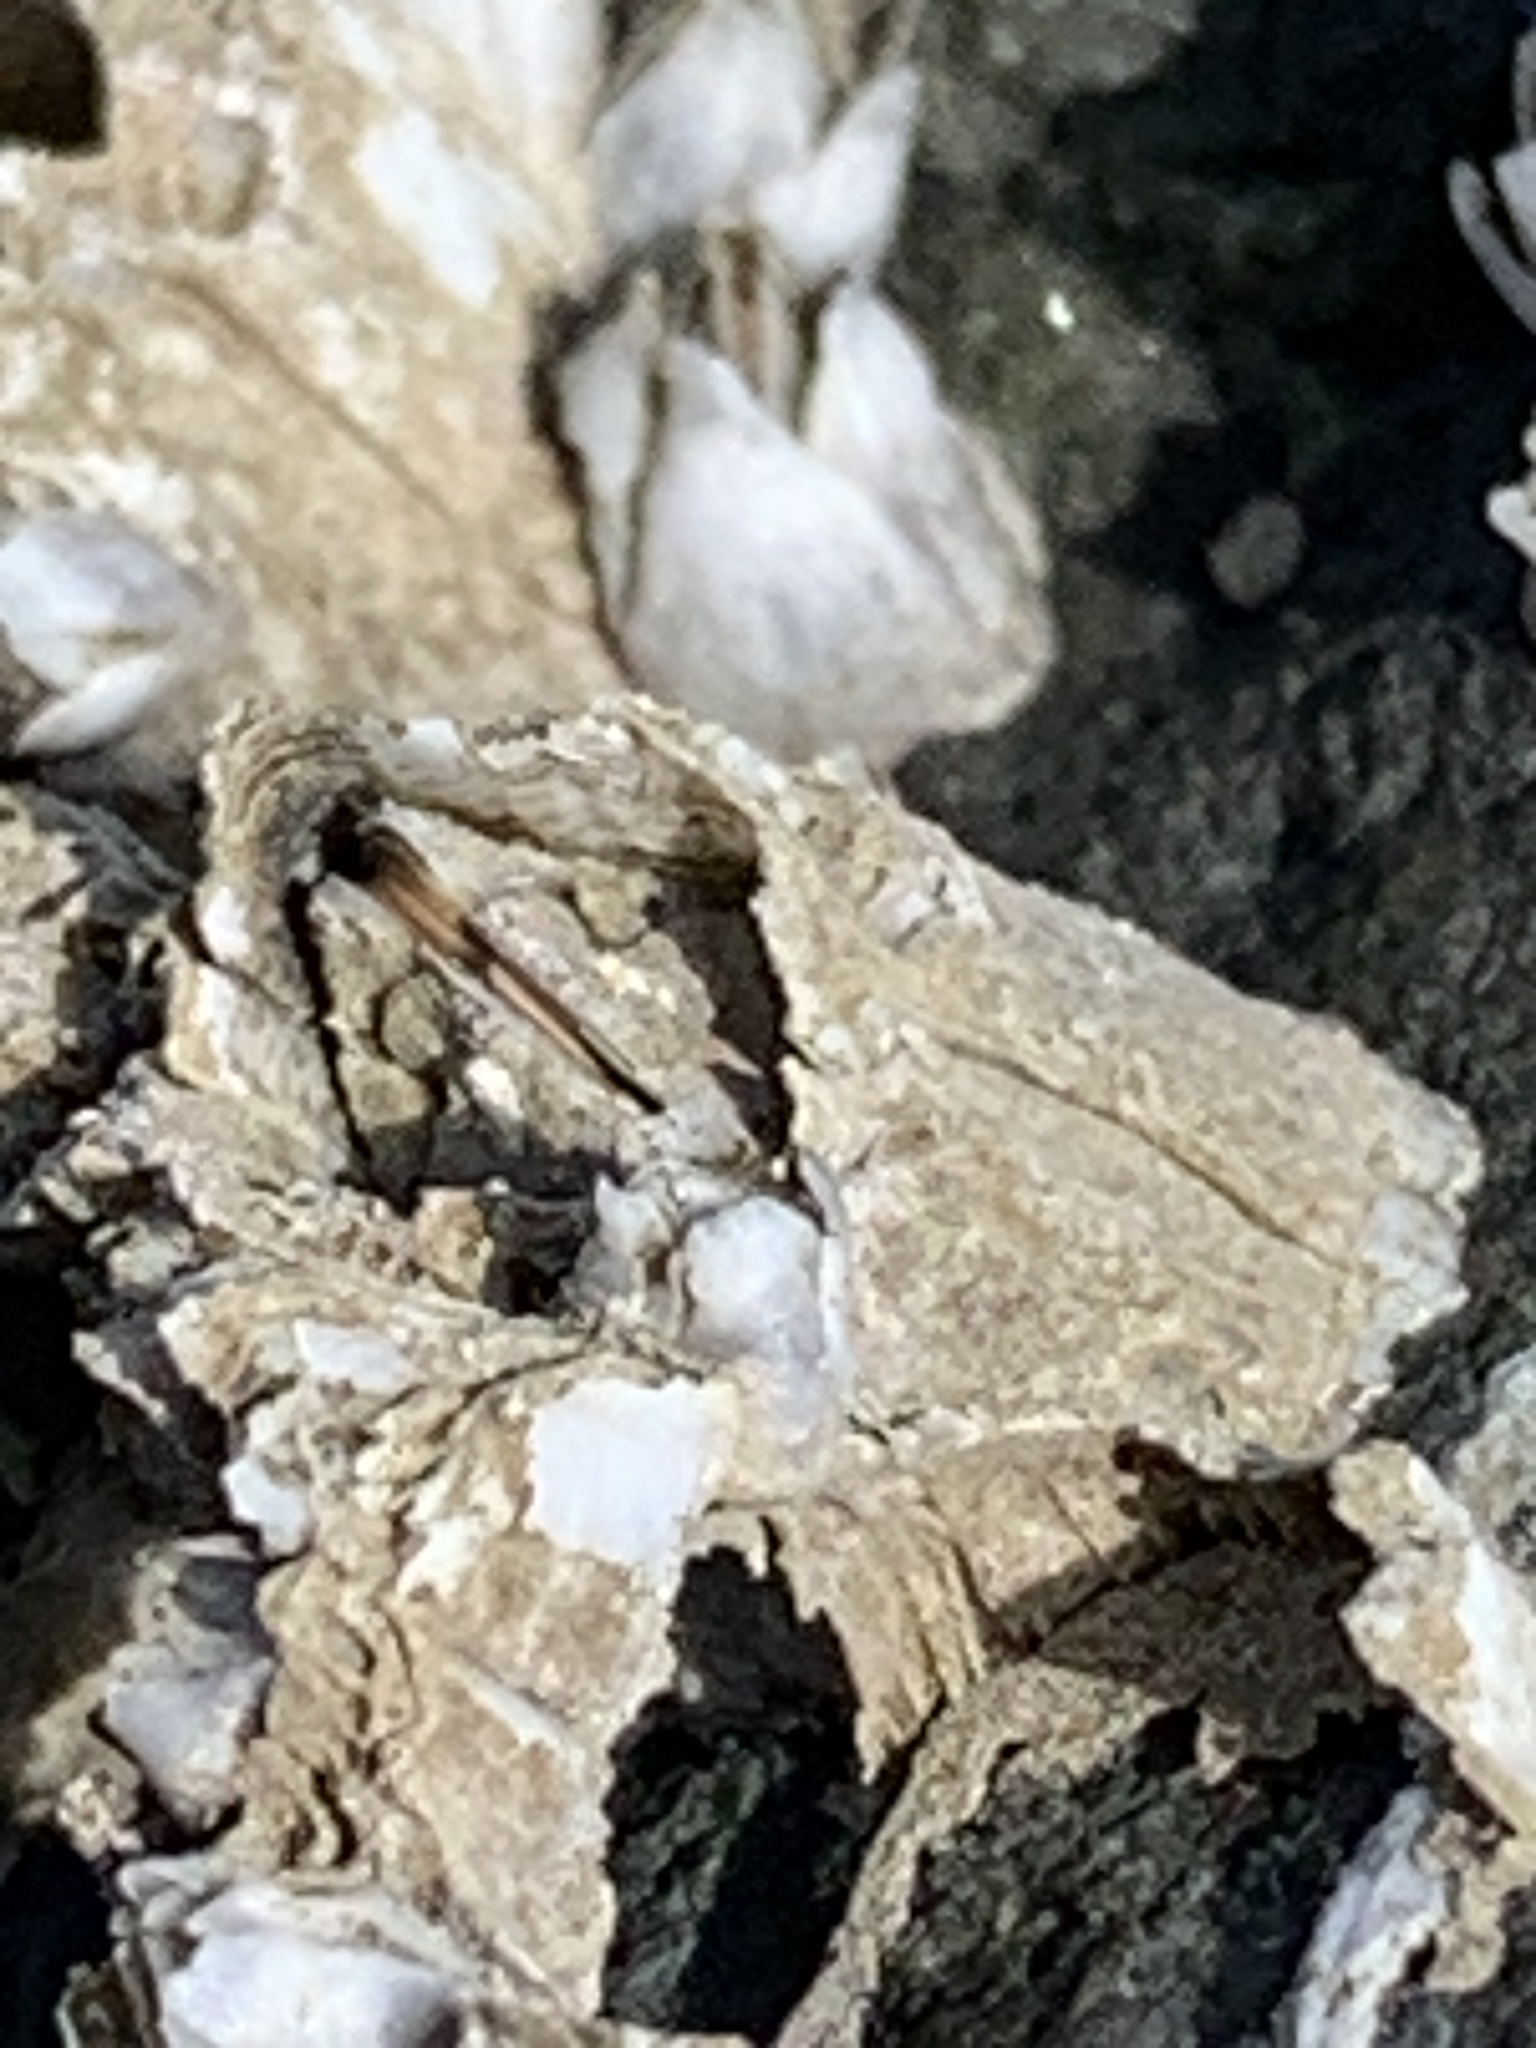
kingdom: Animalia
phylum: Arthropoda
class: Maxillopoda
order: Sessilia
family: Balanidae
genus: Balanus
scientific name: Balanus glandula
